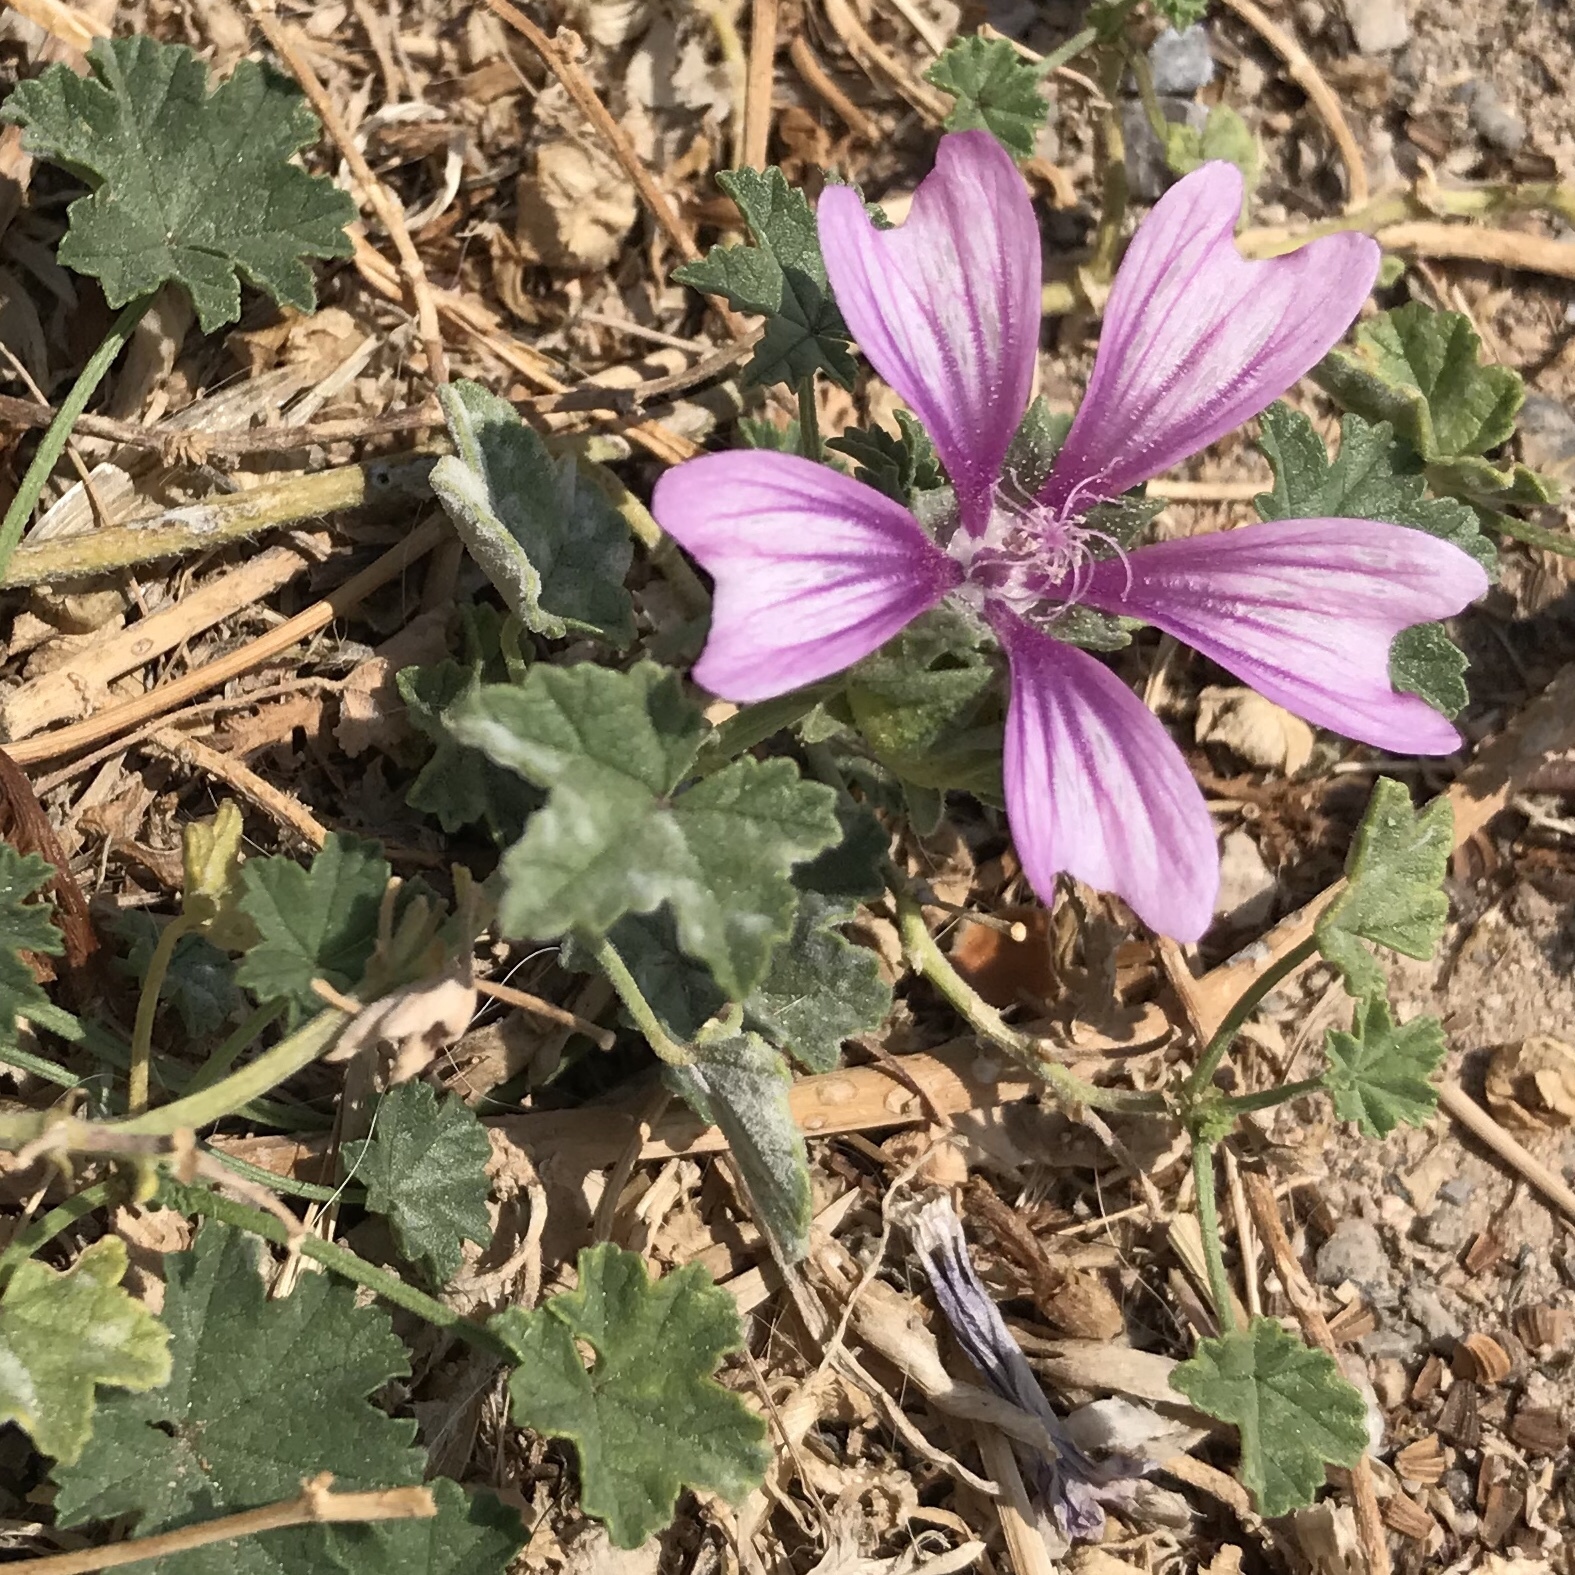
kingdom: Plantae
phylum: Tracheophyta
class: Magnoliopsida
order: Malvales
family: Malvaceae
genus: Malva
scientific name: Malva sylvestris
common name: Common mallow
